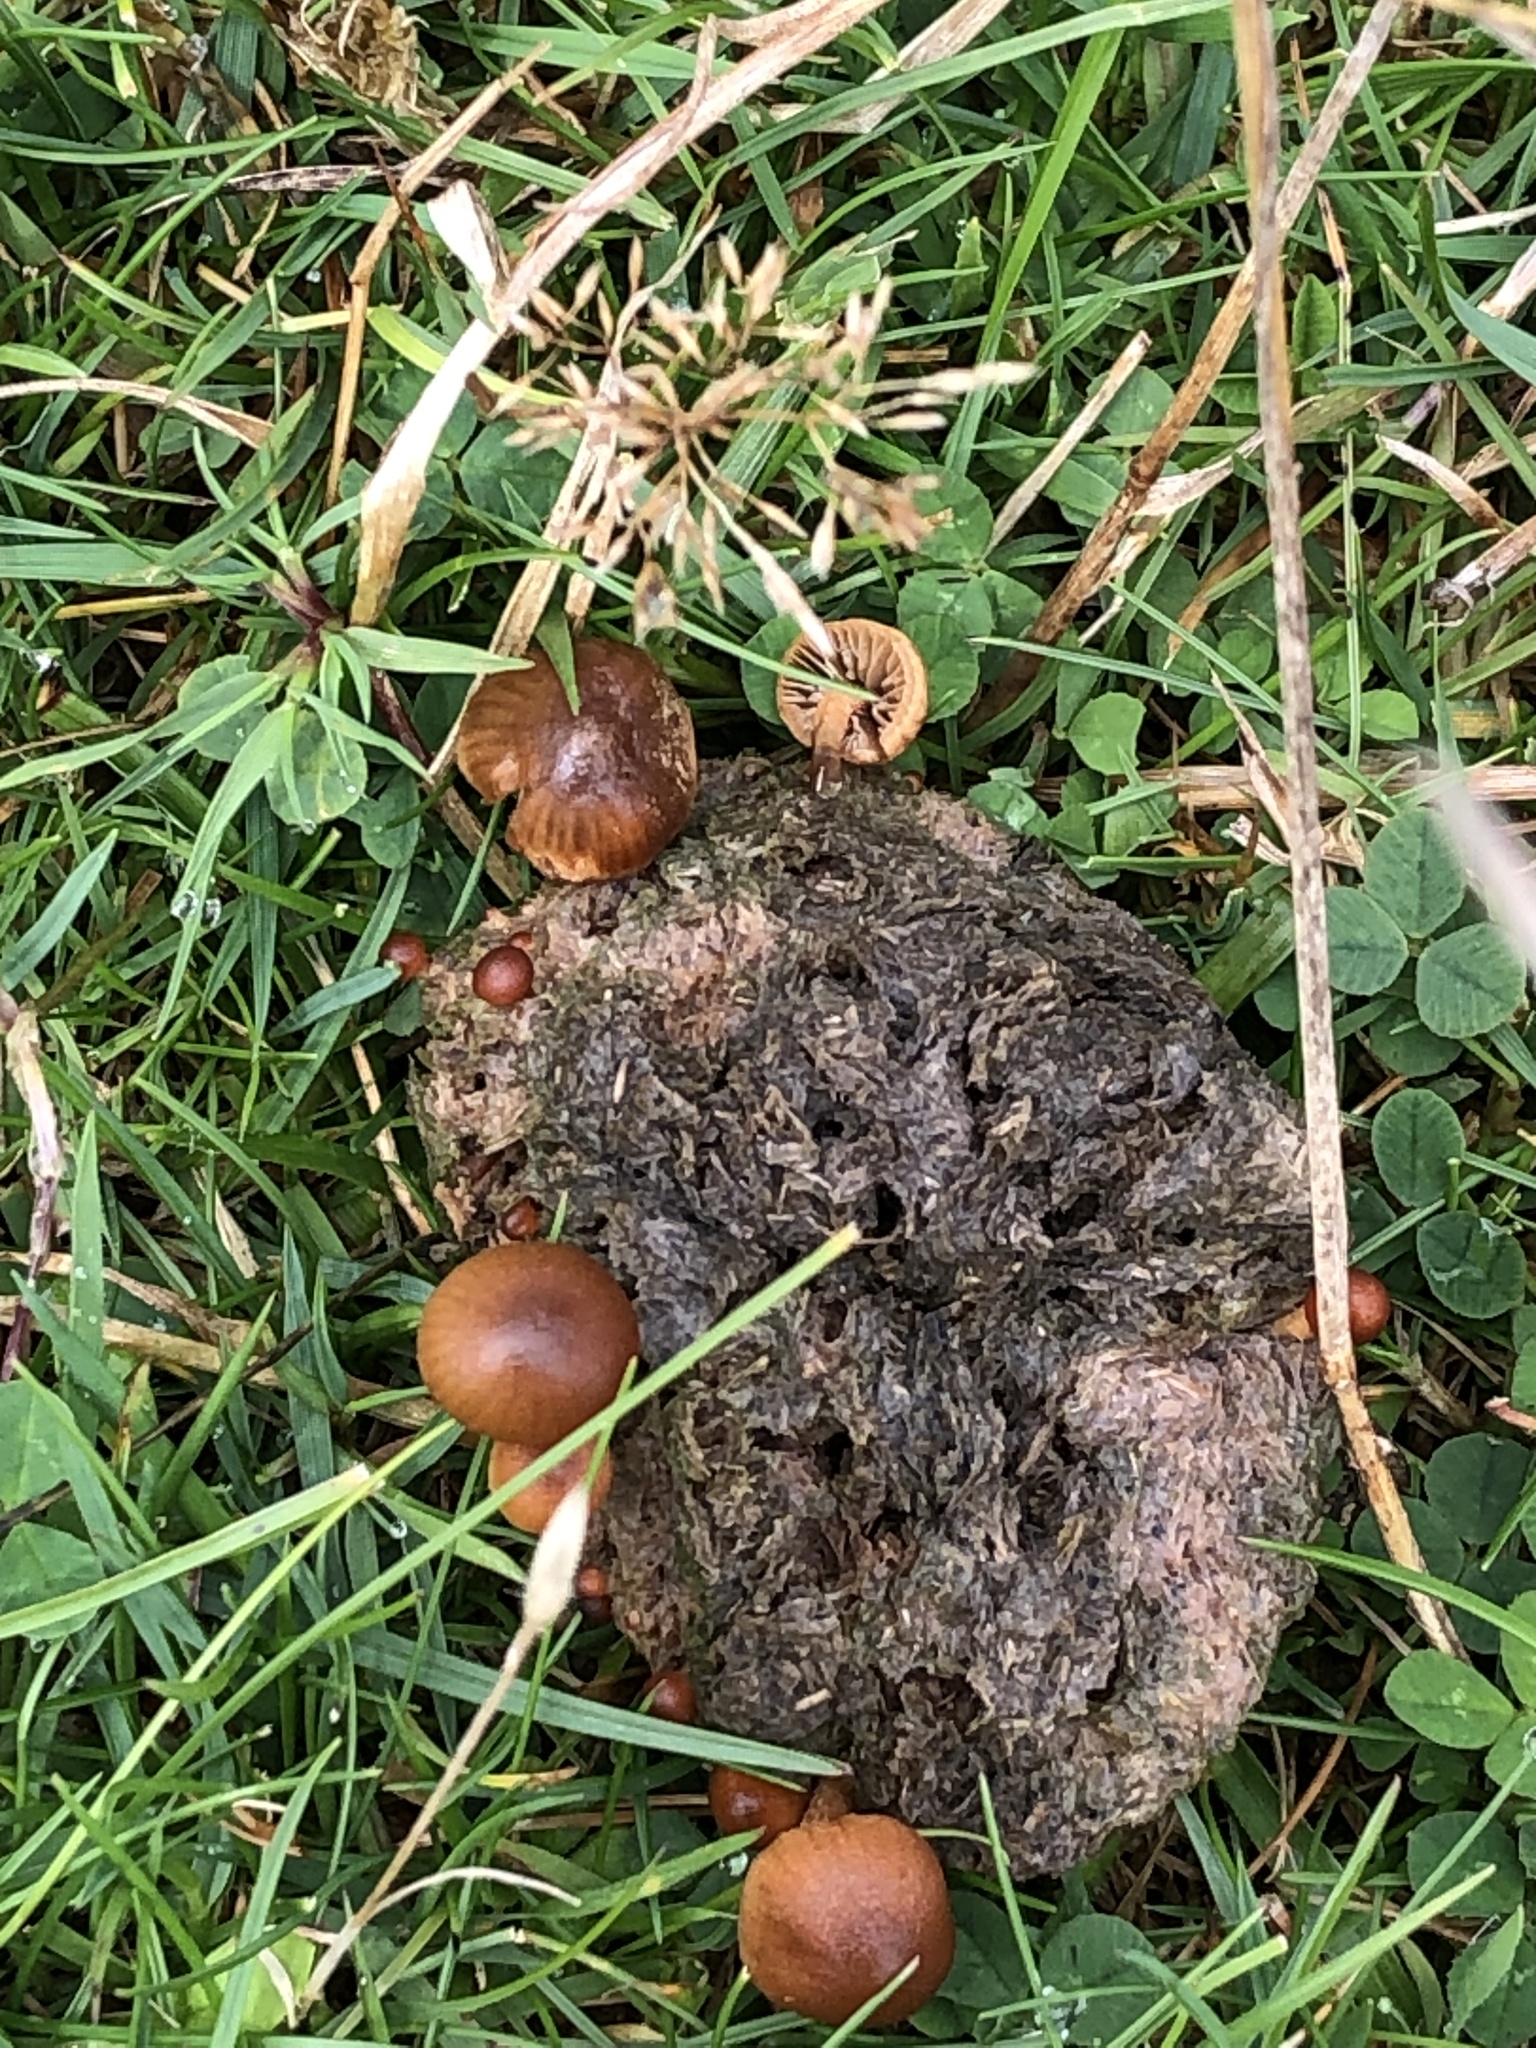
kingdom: Fungi
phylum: Basidiomycota
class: Agaricomycetes
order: Agaricales
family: Strophariaceae
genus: Deconica
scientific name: Deconica coprophila
